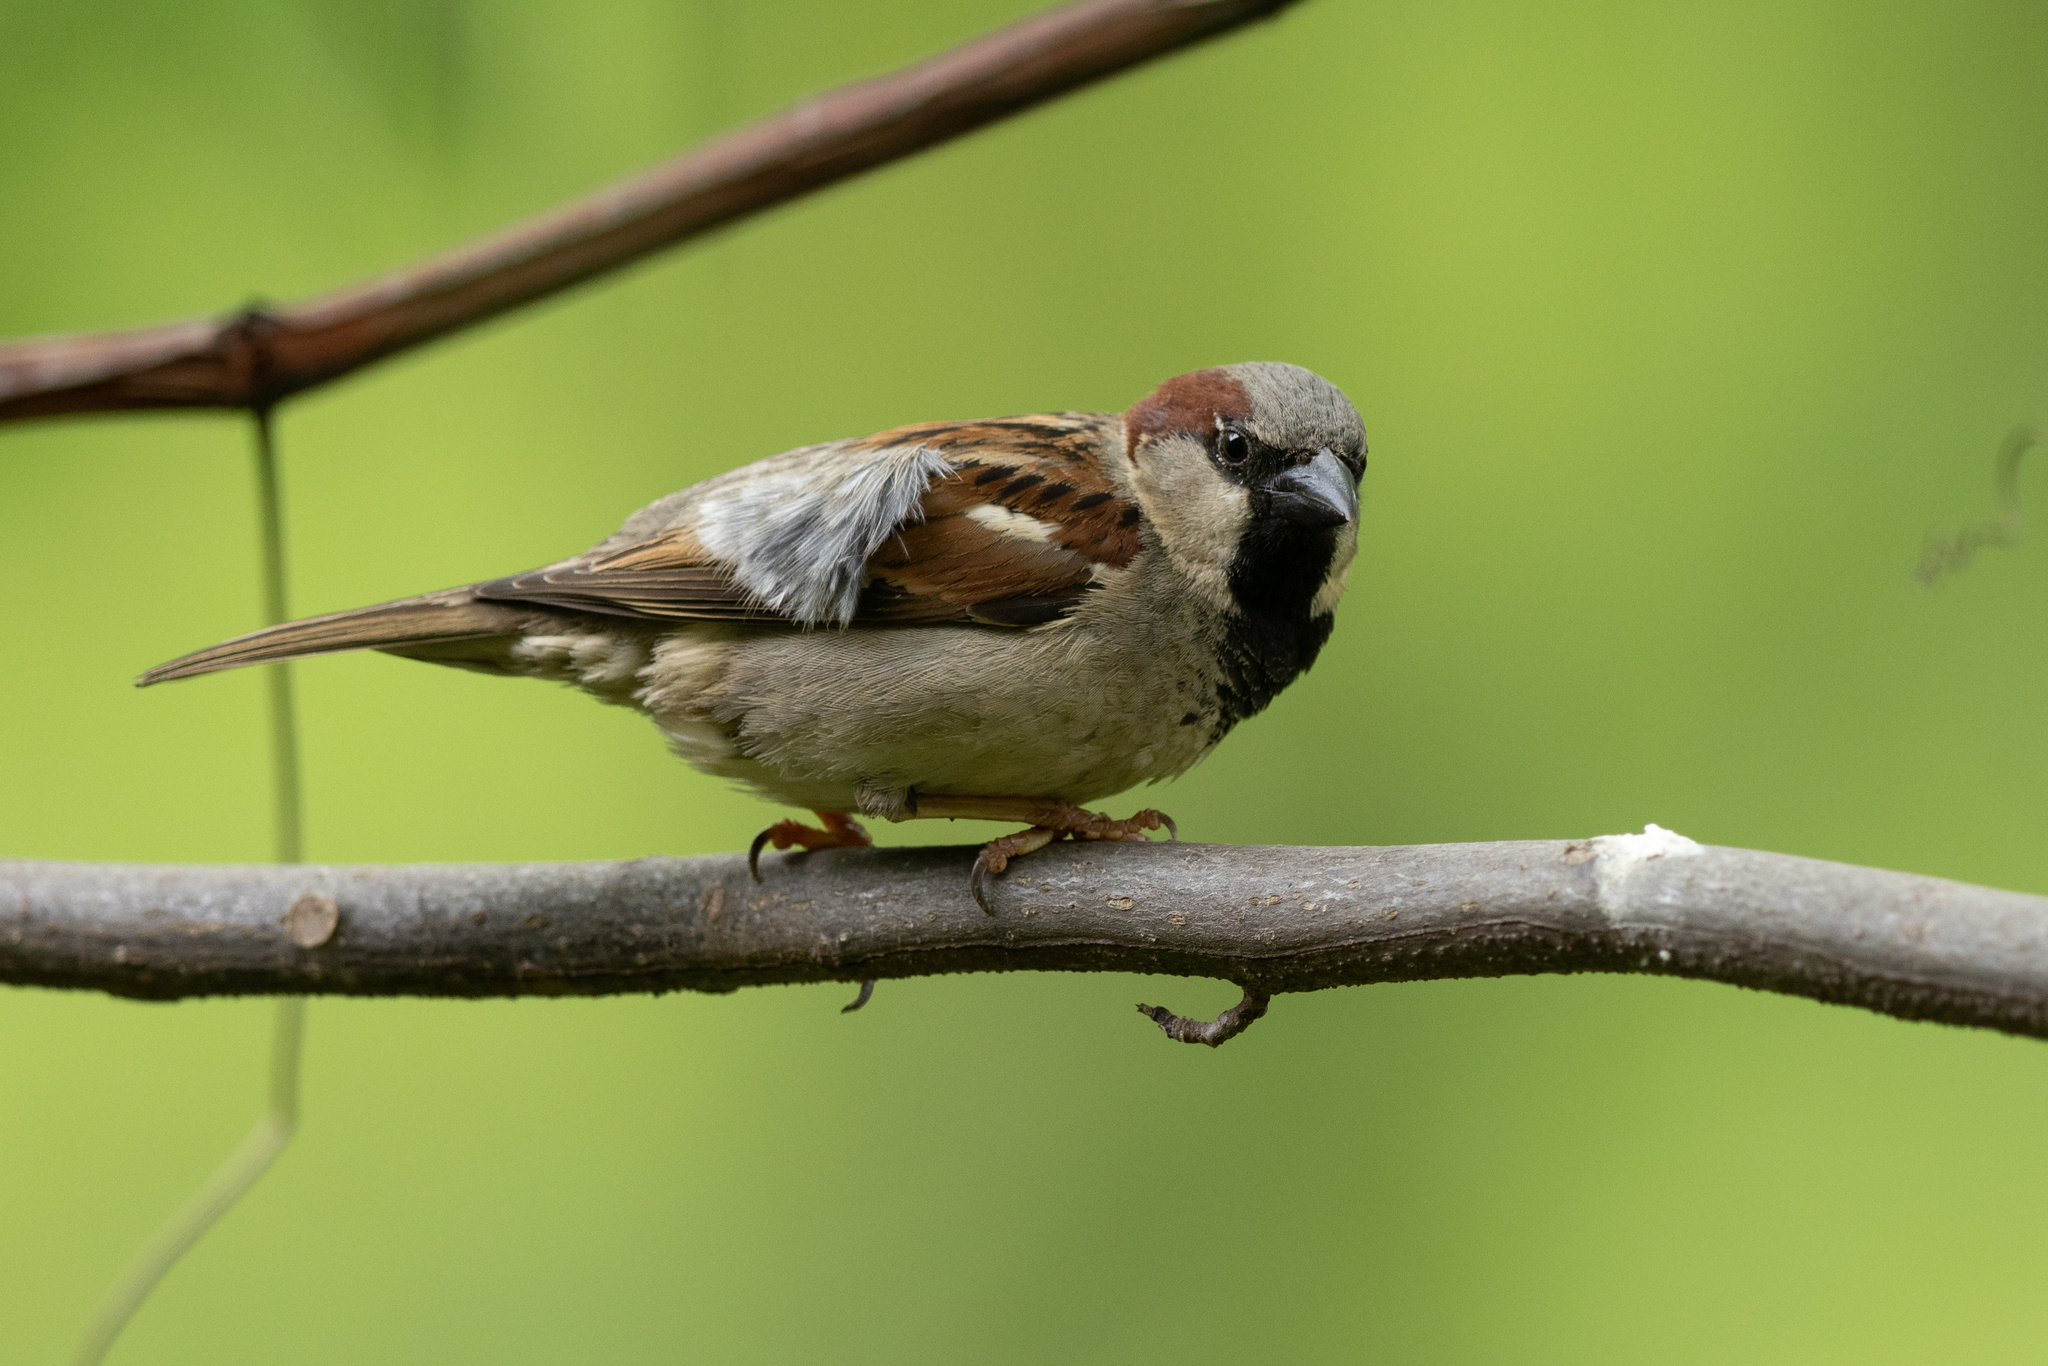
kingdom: Animalia
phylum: Chordata
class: Aves
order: Passeriformes
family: Passeridae
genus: Passer
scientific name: Passer domesticus
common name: House sparrow
